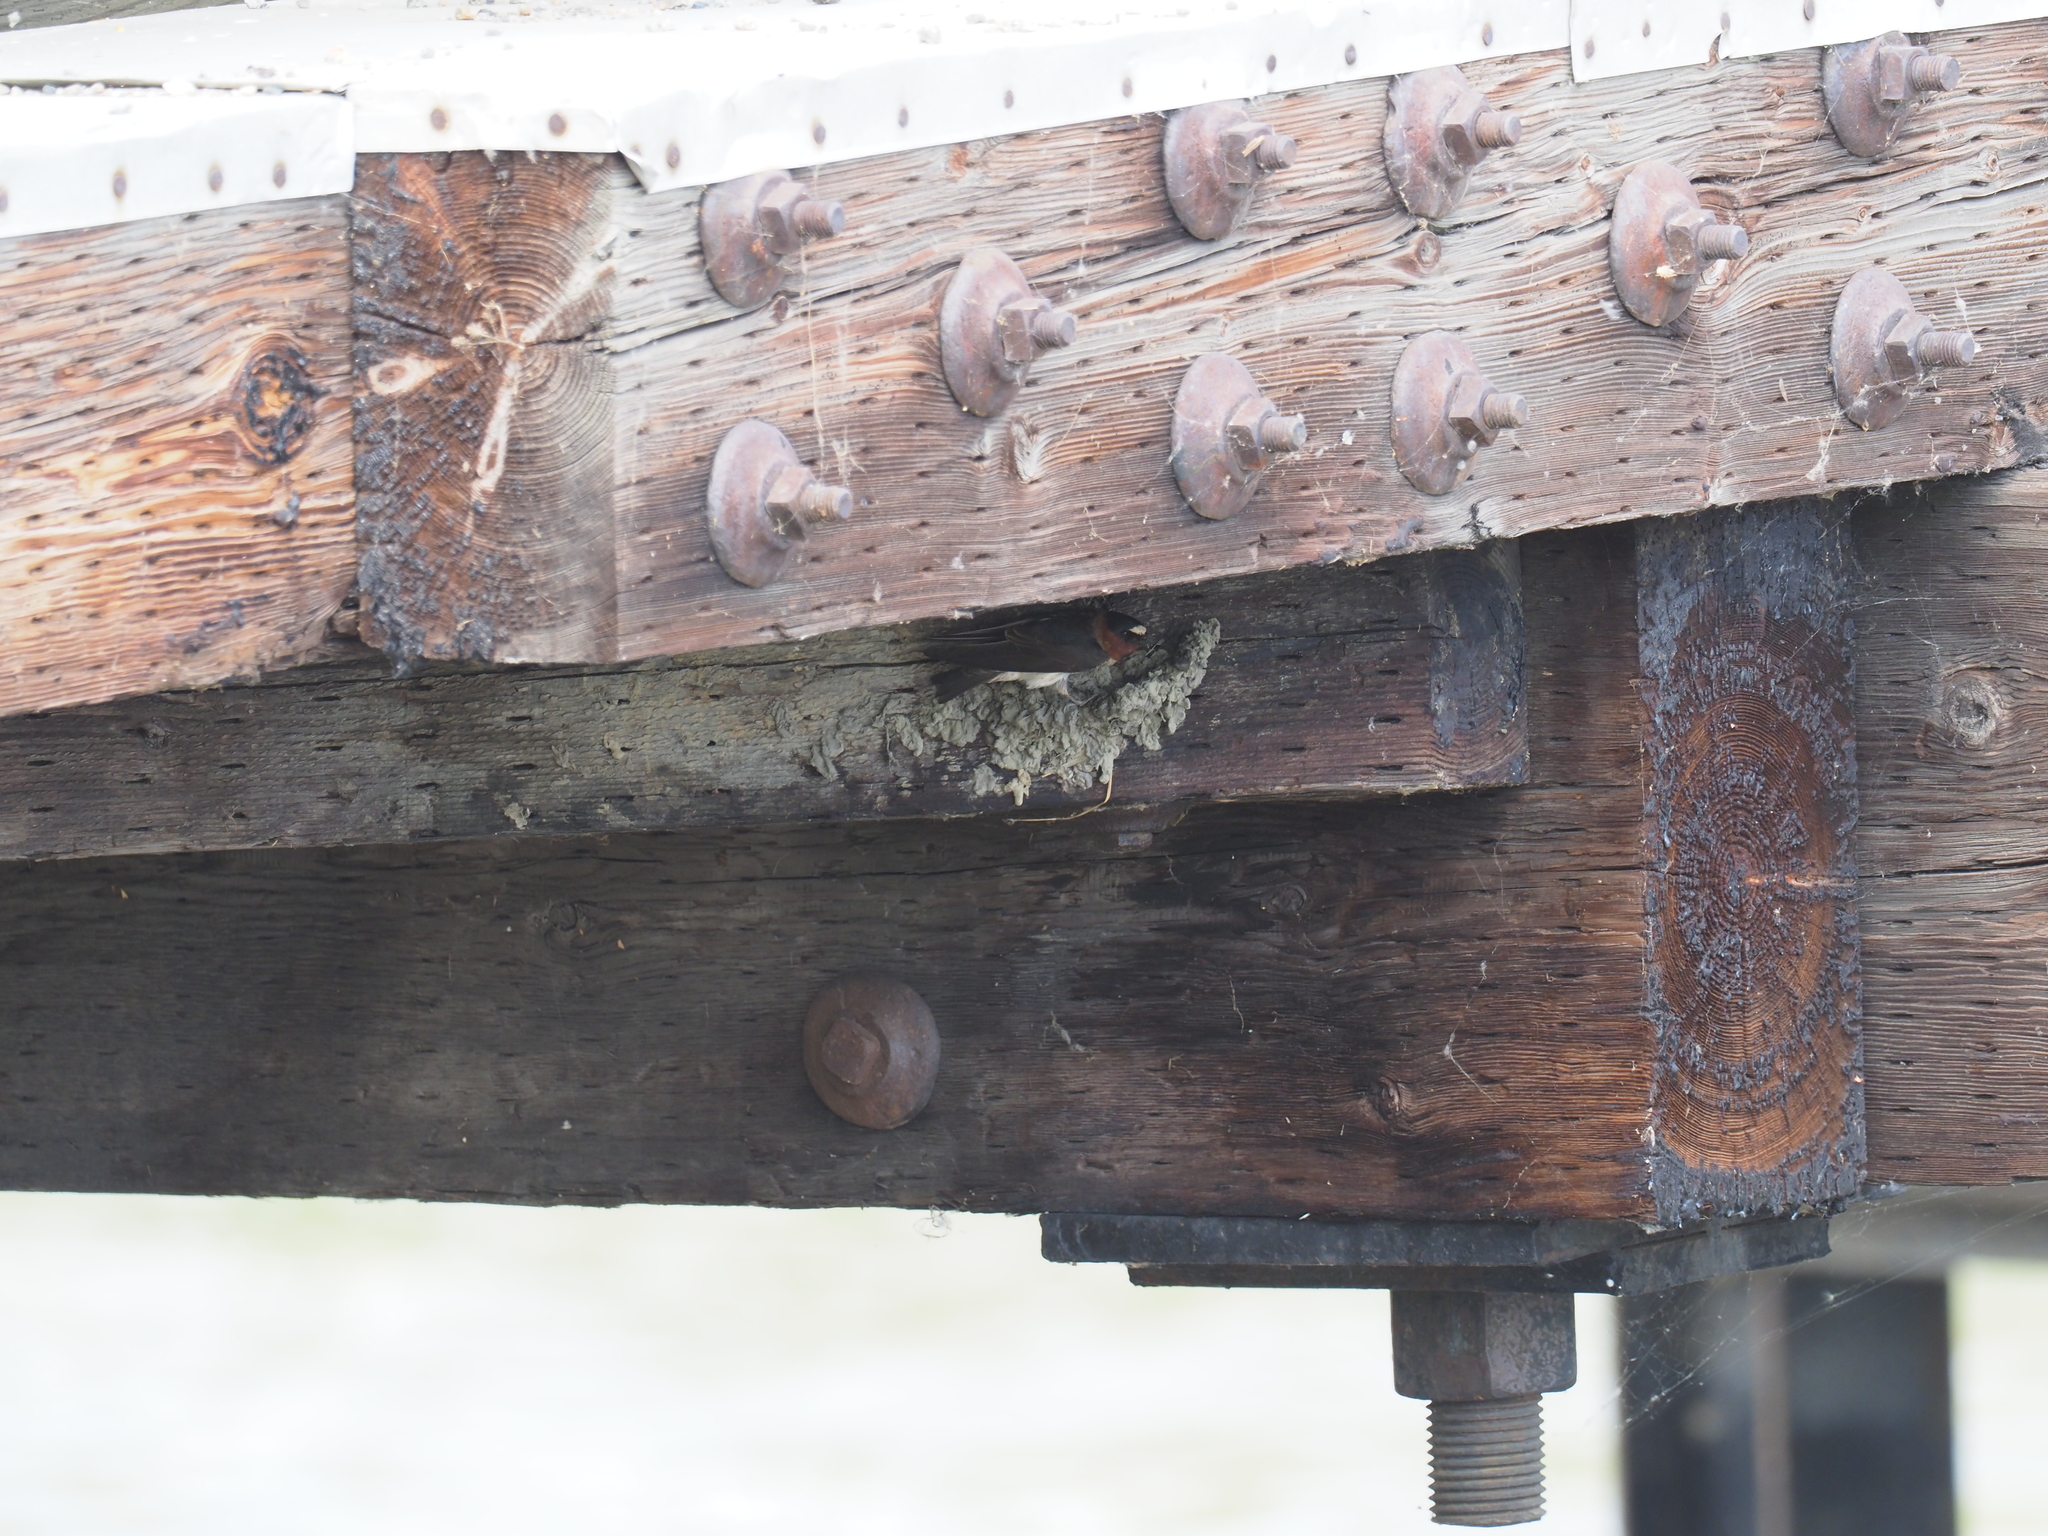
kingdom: Animalia
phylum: Chordata
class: Aves
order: Passeriformes
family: Hirundinidae
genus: Petrochelidon
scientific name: Petrochelidon pyrrhonota
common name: American cliff swallow
